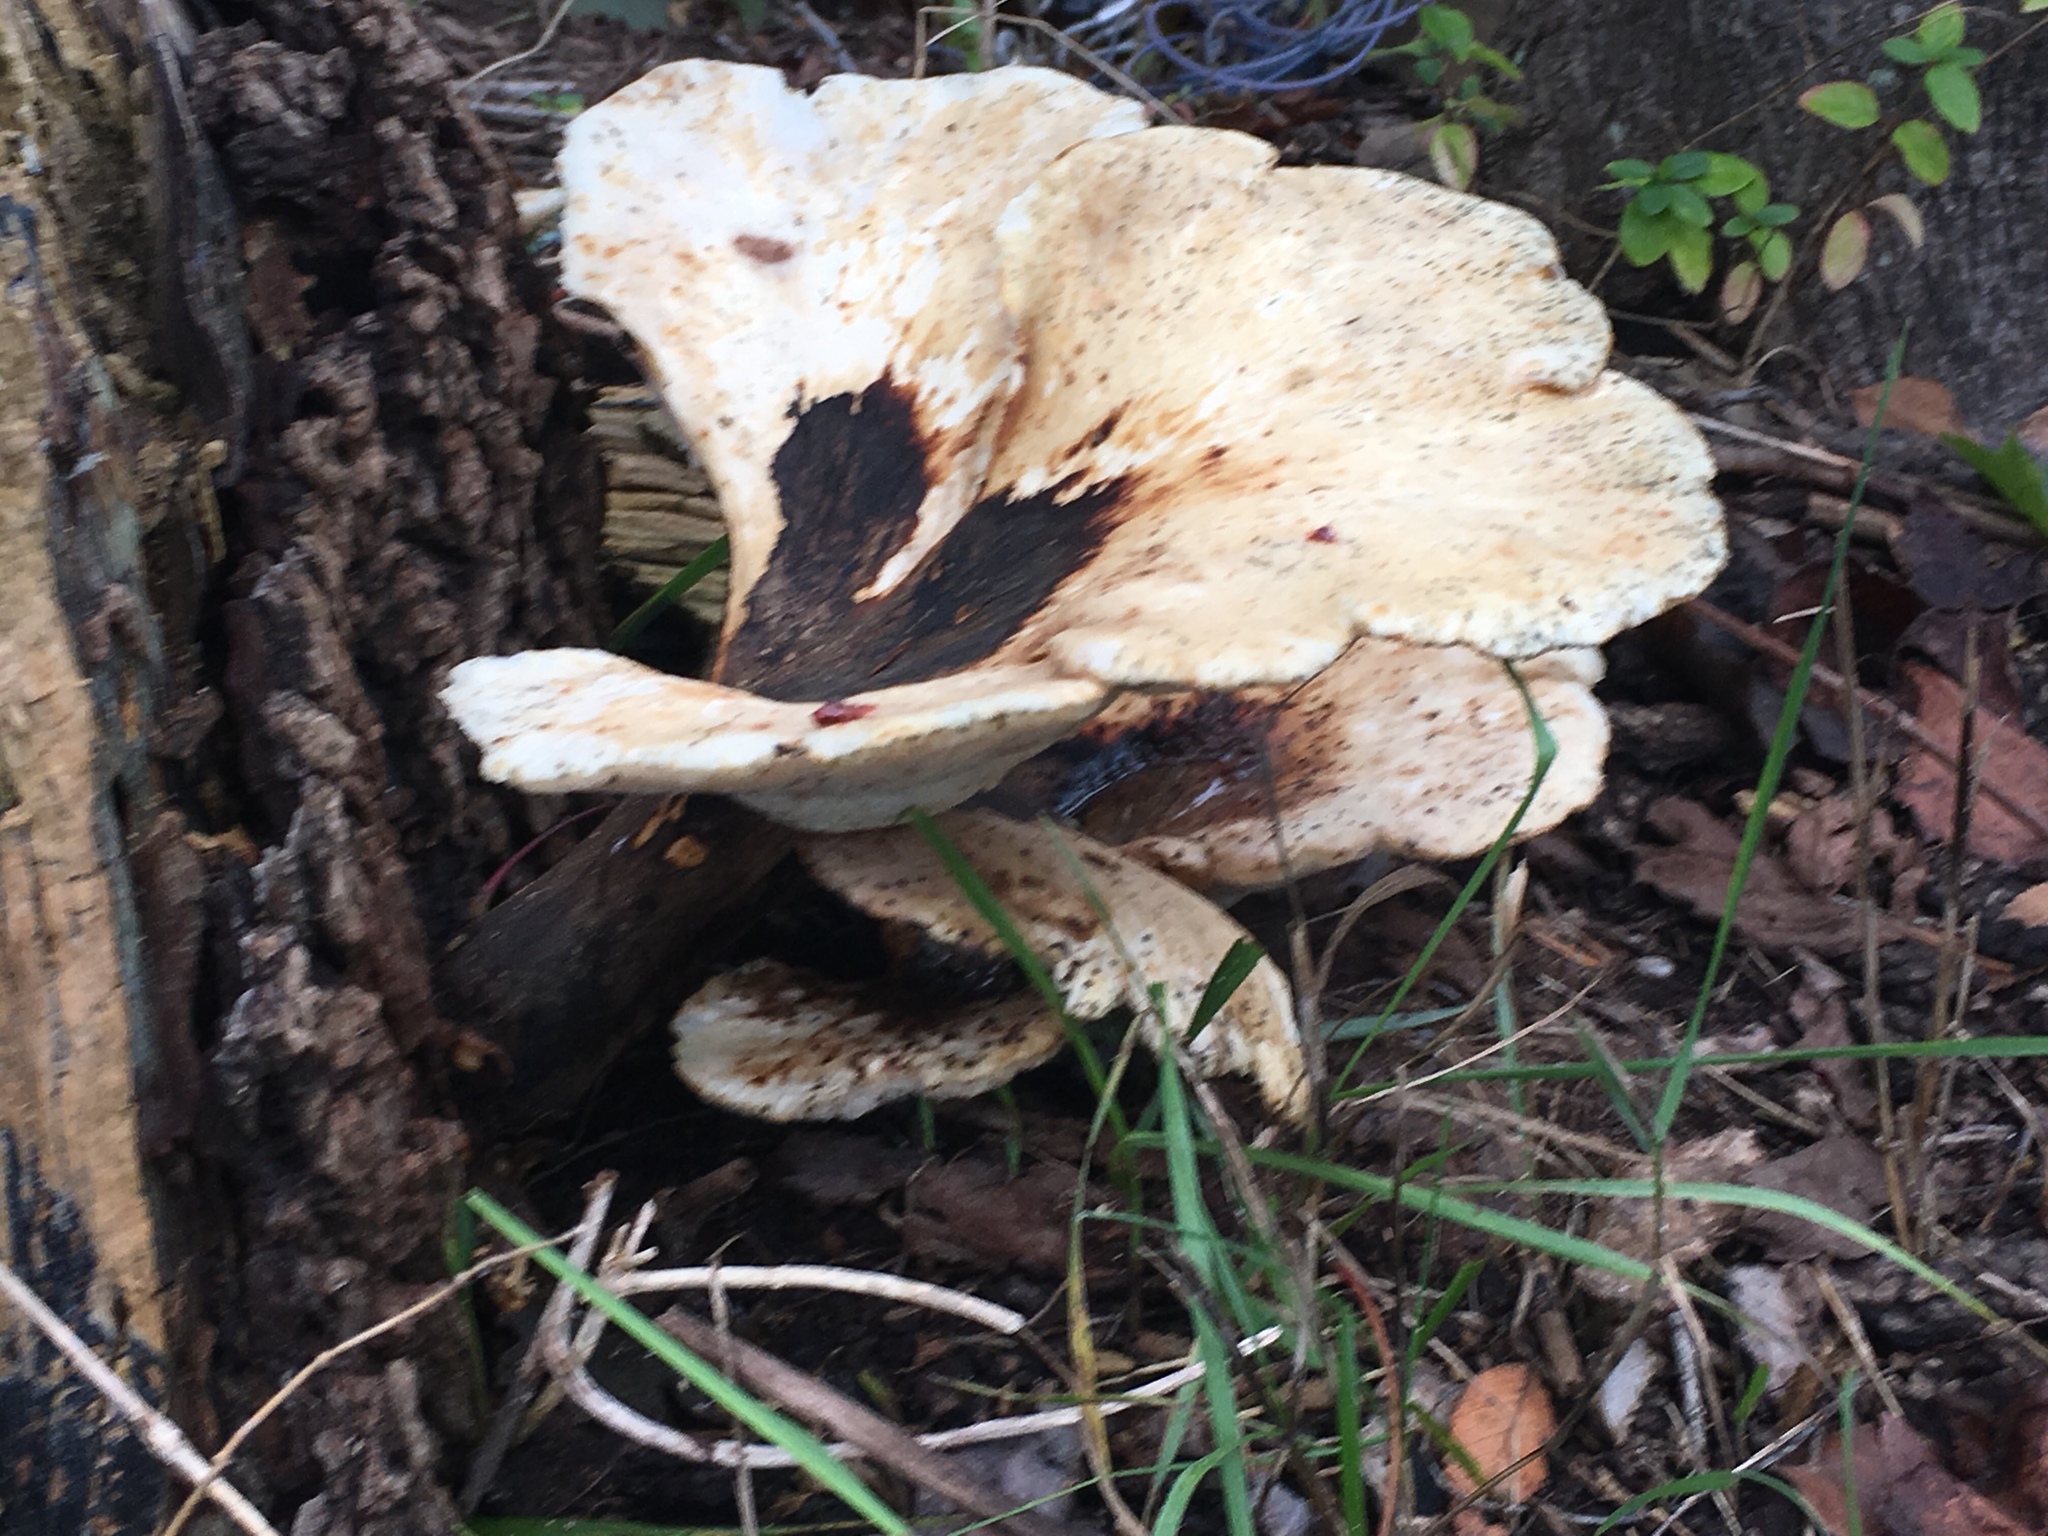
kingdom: Fungi
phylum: Basidiomycota
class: Agaricomycetes
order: Polyporales
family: Polyporaceae
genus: Cerioporus
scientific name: Cerioporus squamosus
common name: Dryad's saddle
